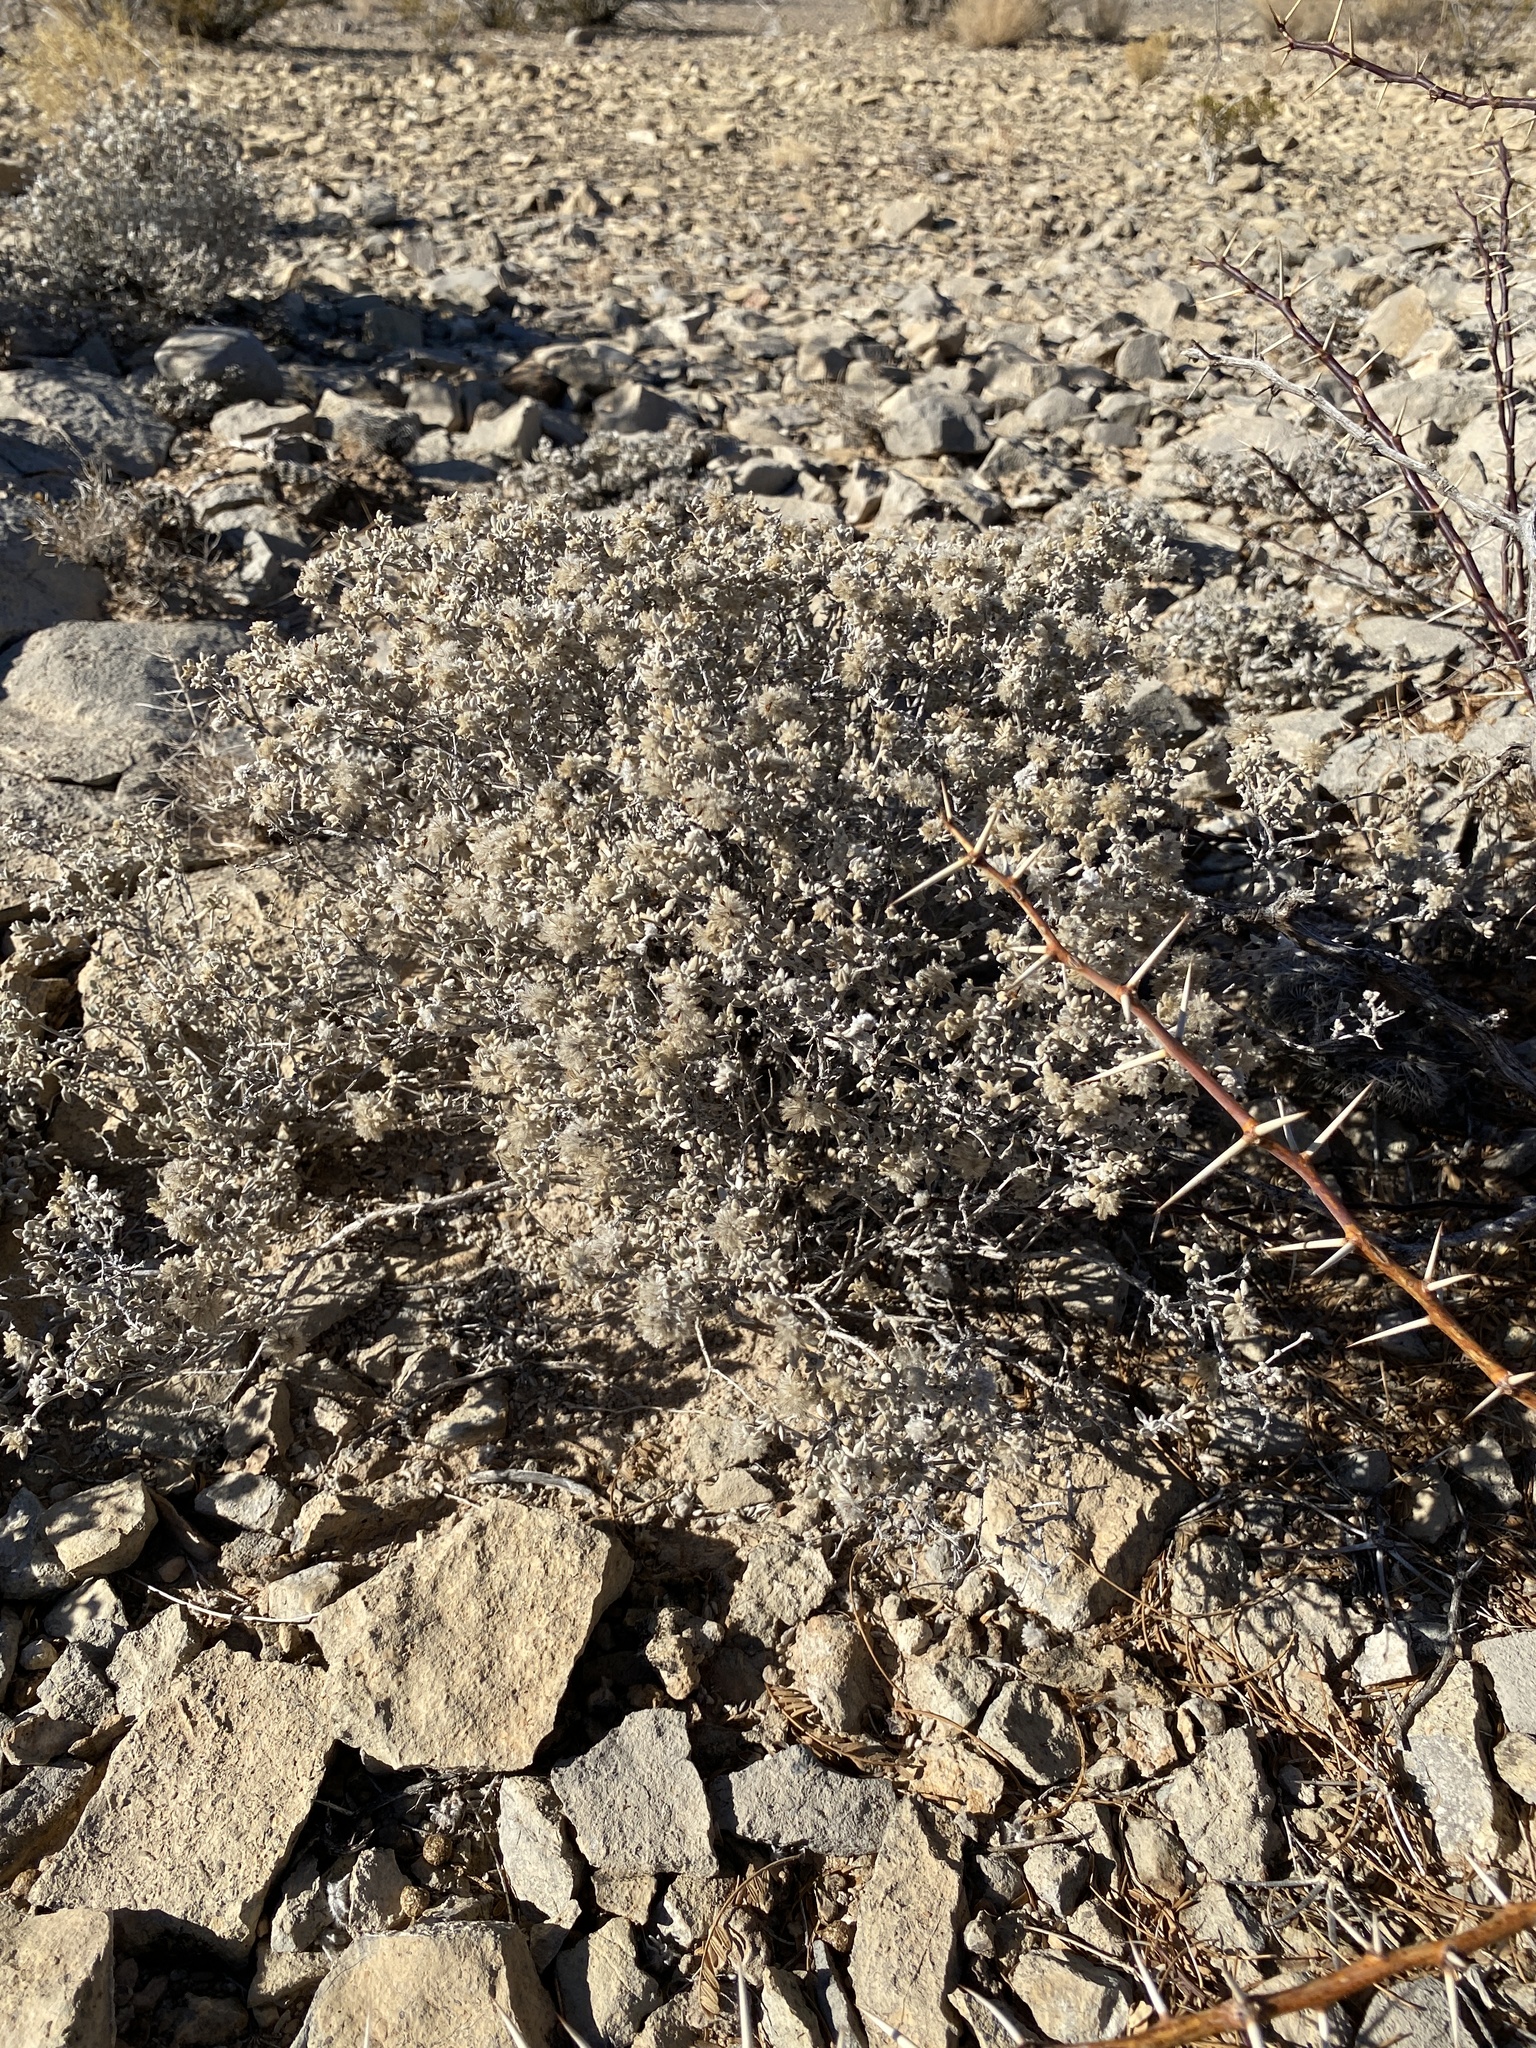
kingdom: Plantae
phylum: Tracheophyta
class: Magnoliopsida
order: Boraginales
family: Ehretiaceae
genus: Tiquilia
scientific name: Tiquilia greggii
